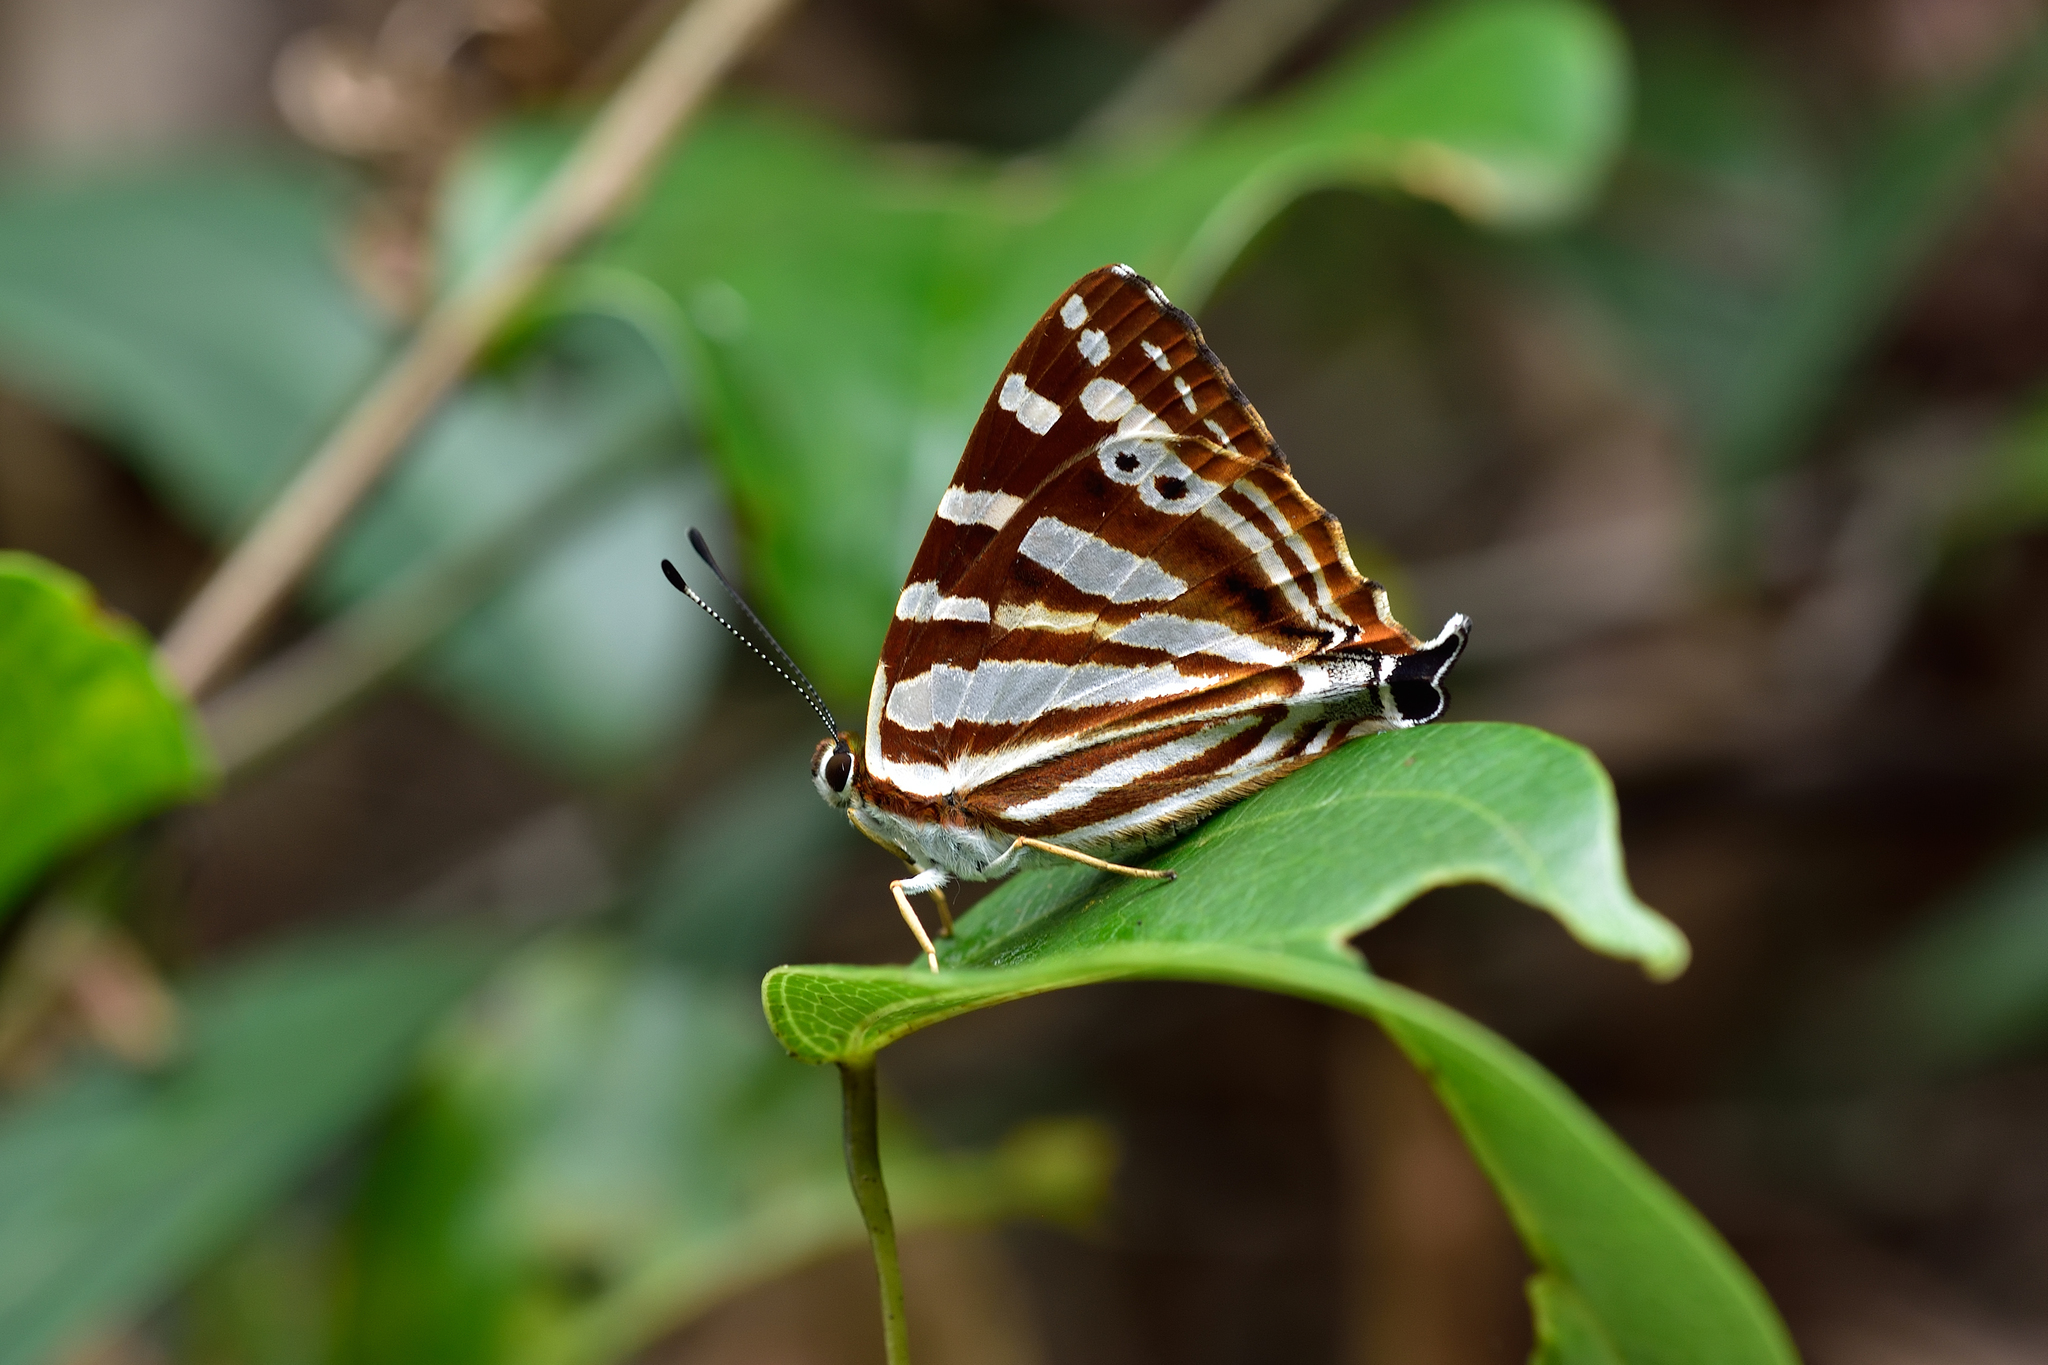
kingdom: Animalia
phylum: Arthropoda
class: Insecta
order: Lepidoptera
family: Lycaenidae
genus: Dodona
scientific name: Dodona eugenes
